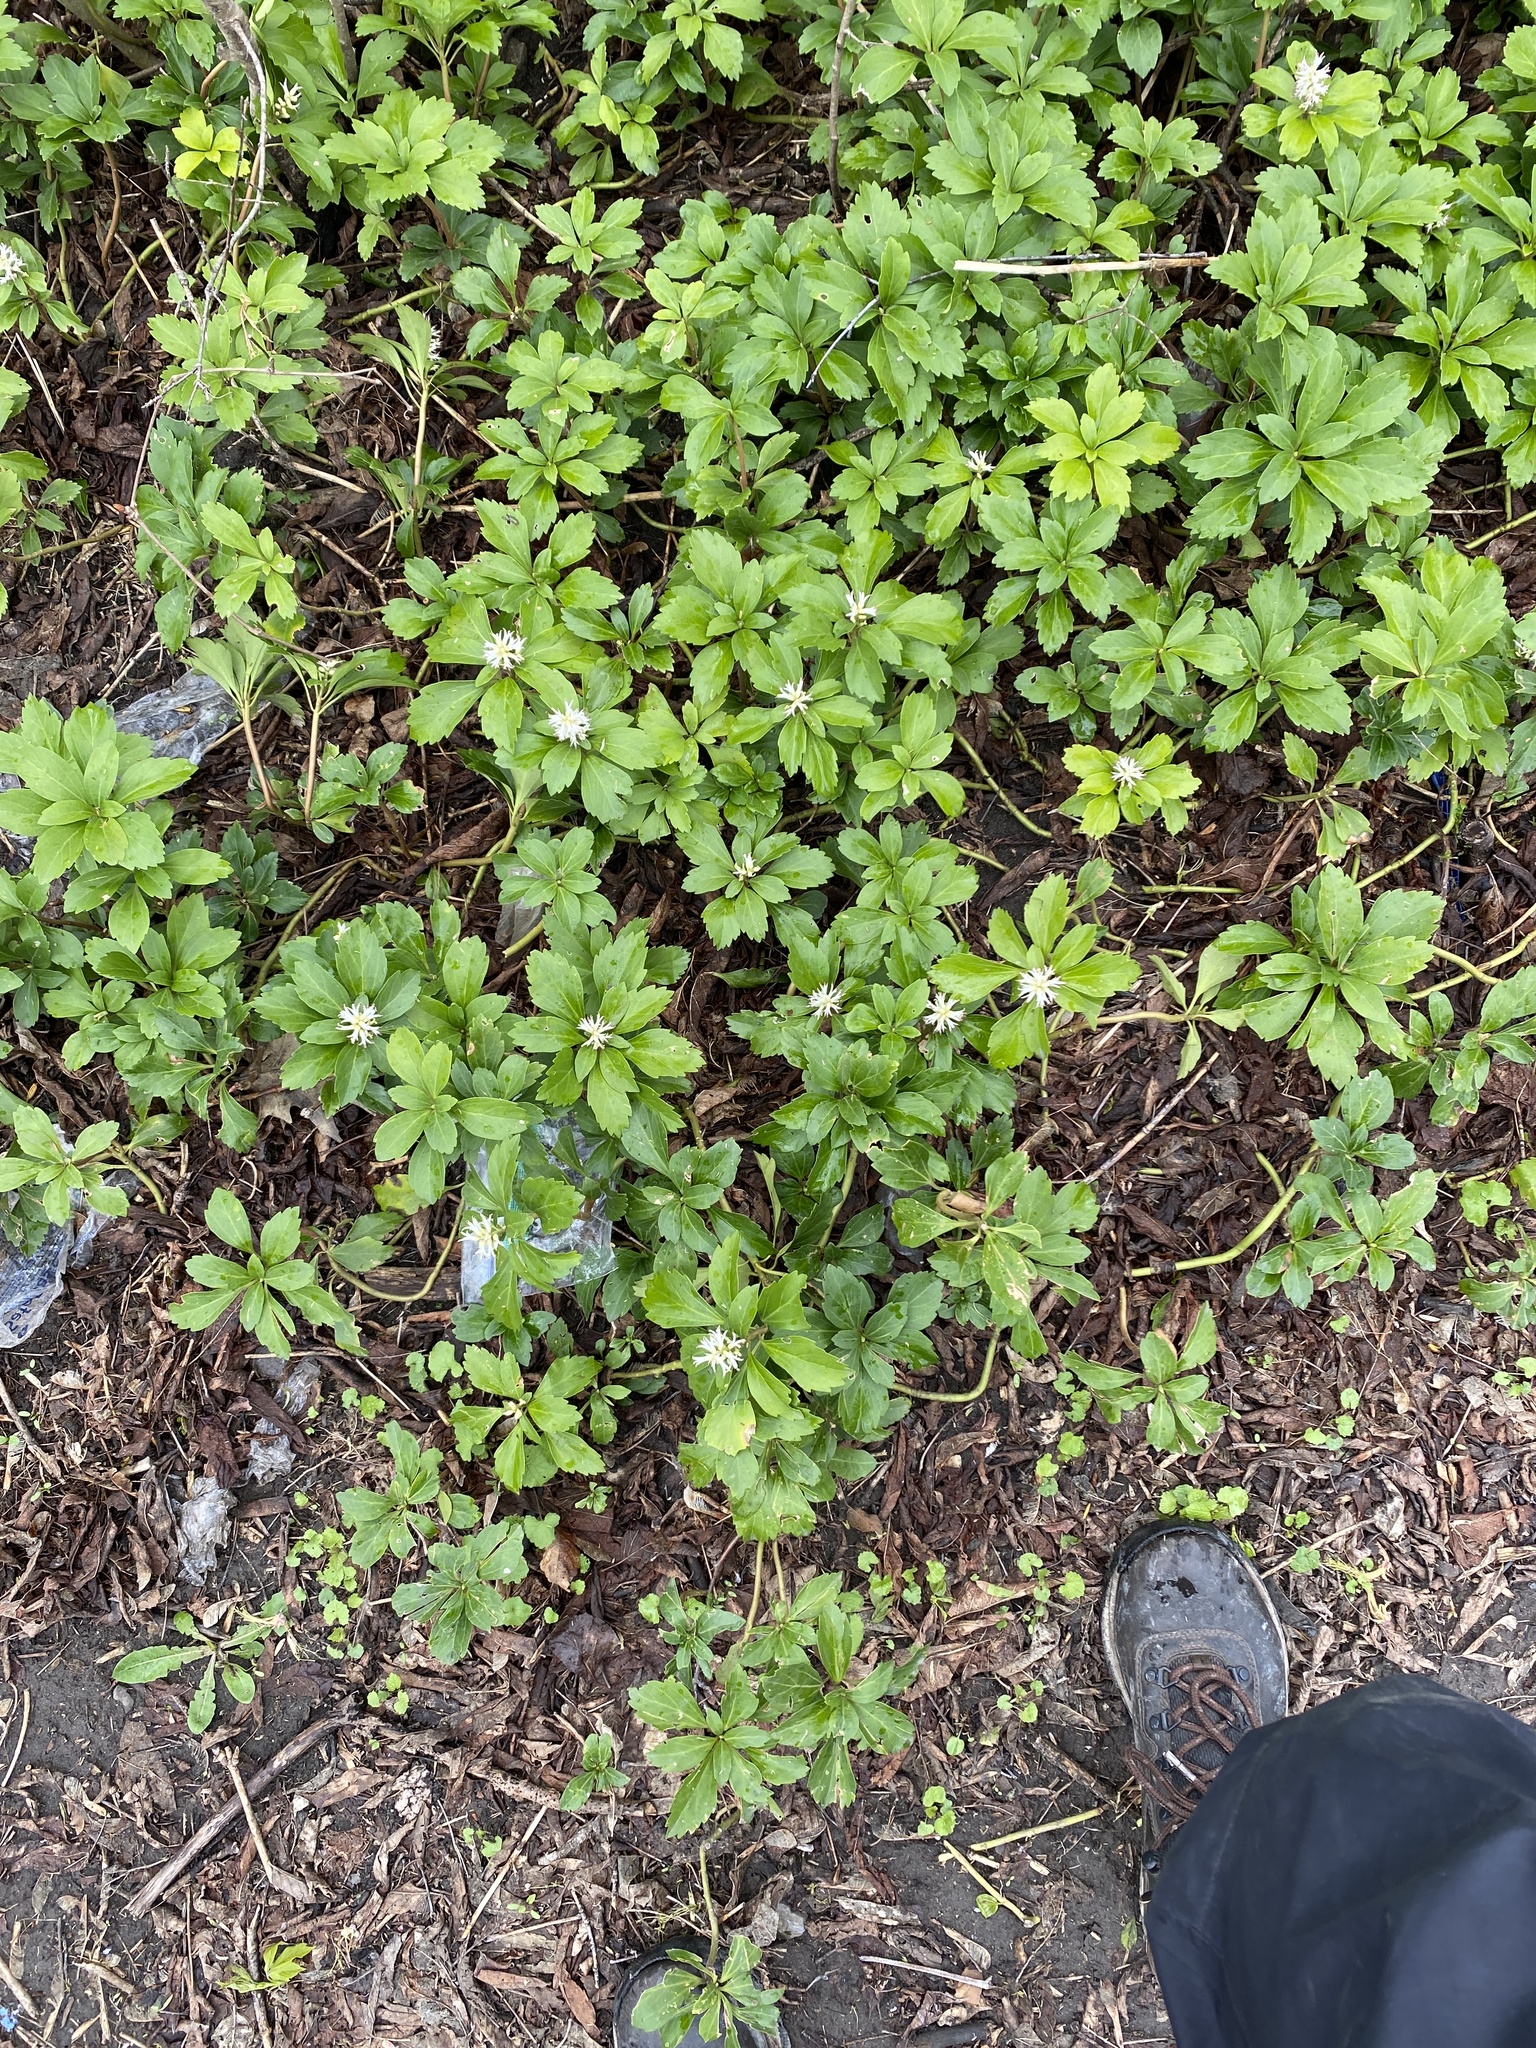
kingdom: Plantae
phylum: Tracheophyta
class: Magnoliopsida
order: Buxales
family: Buxaceae
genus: Pachysandra
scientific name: Pachysandra terminalis
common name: Japanese pachysandra
